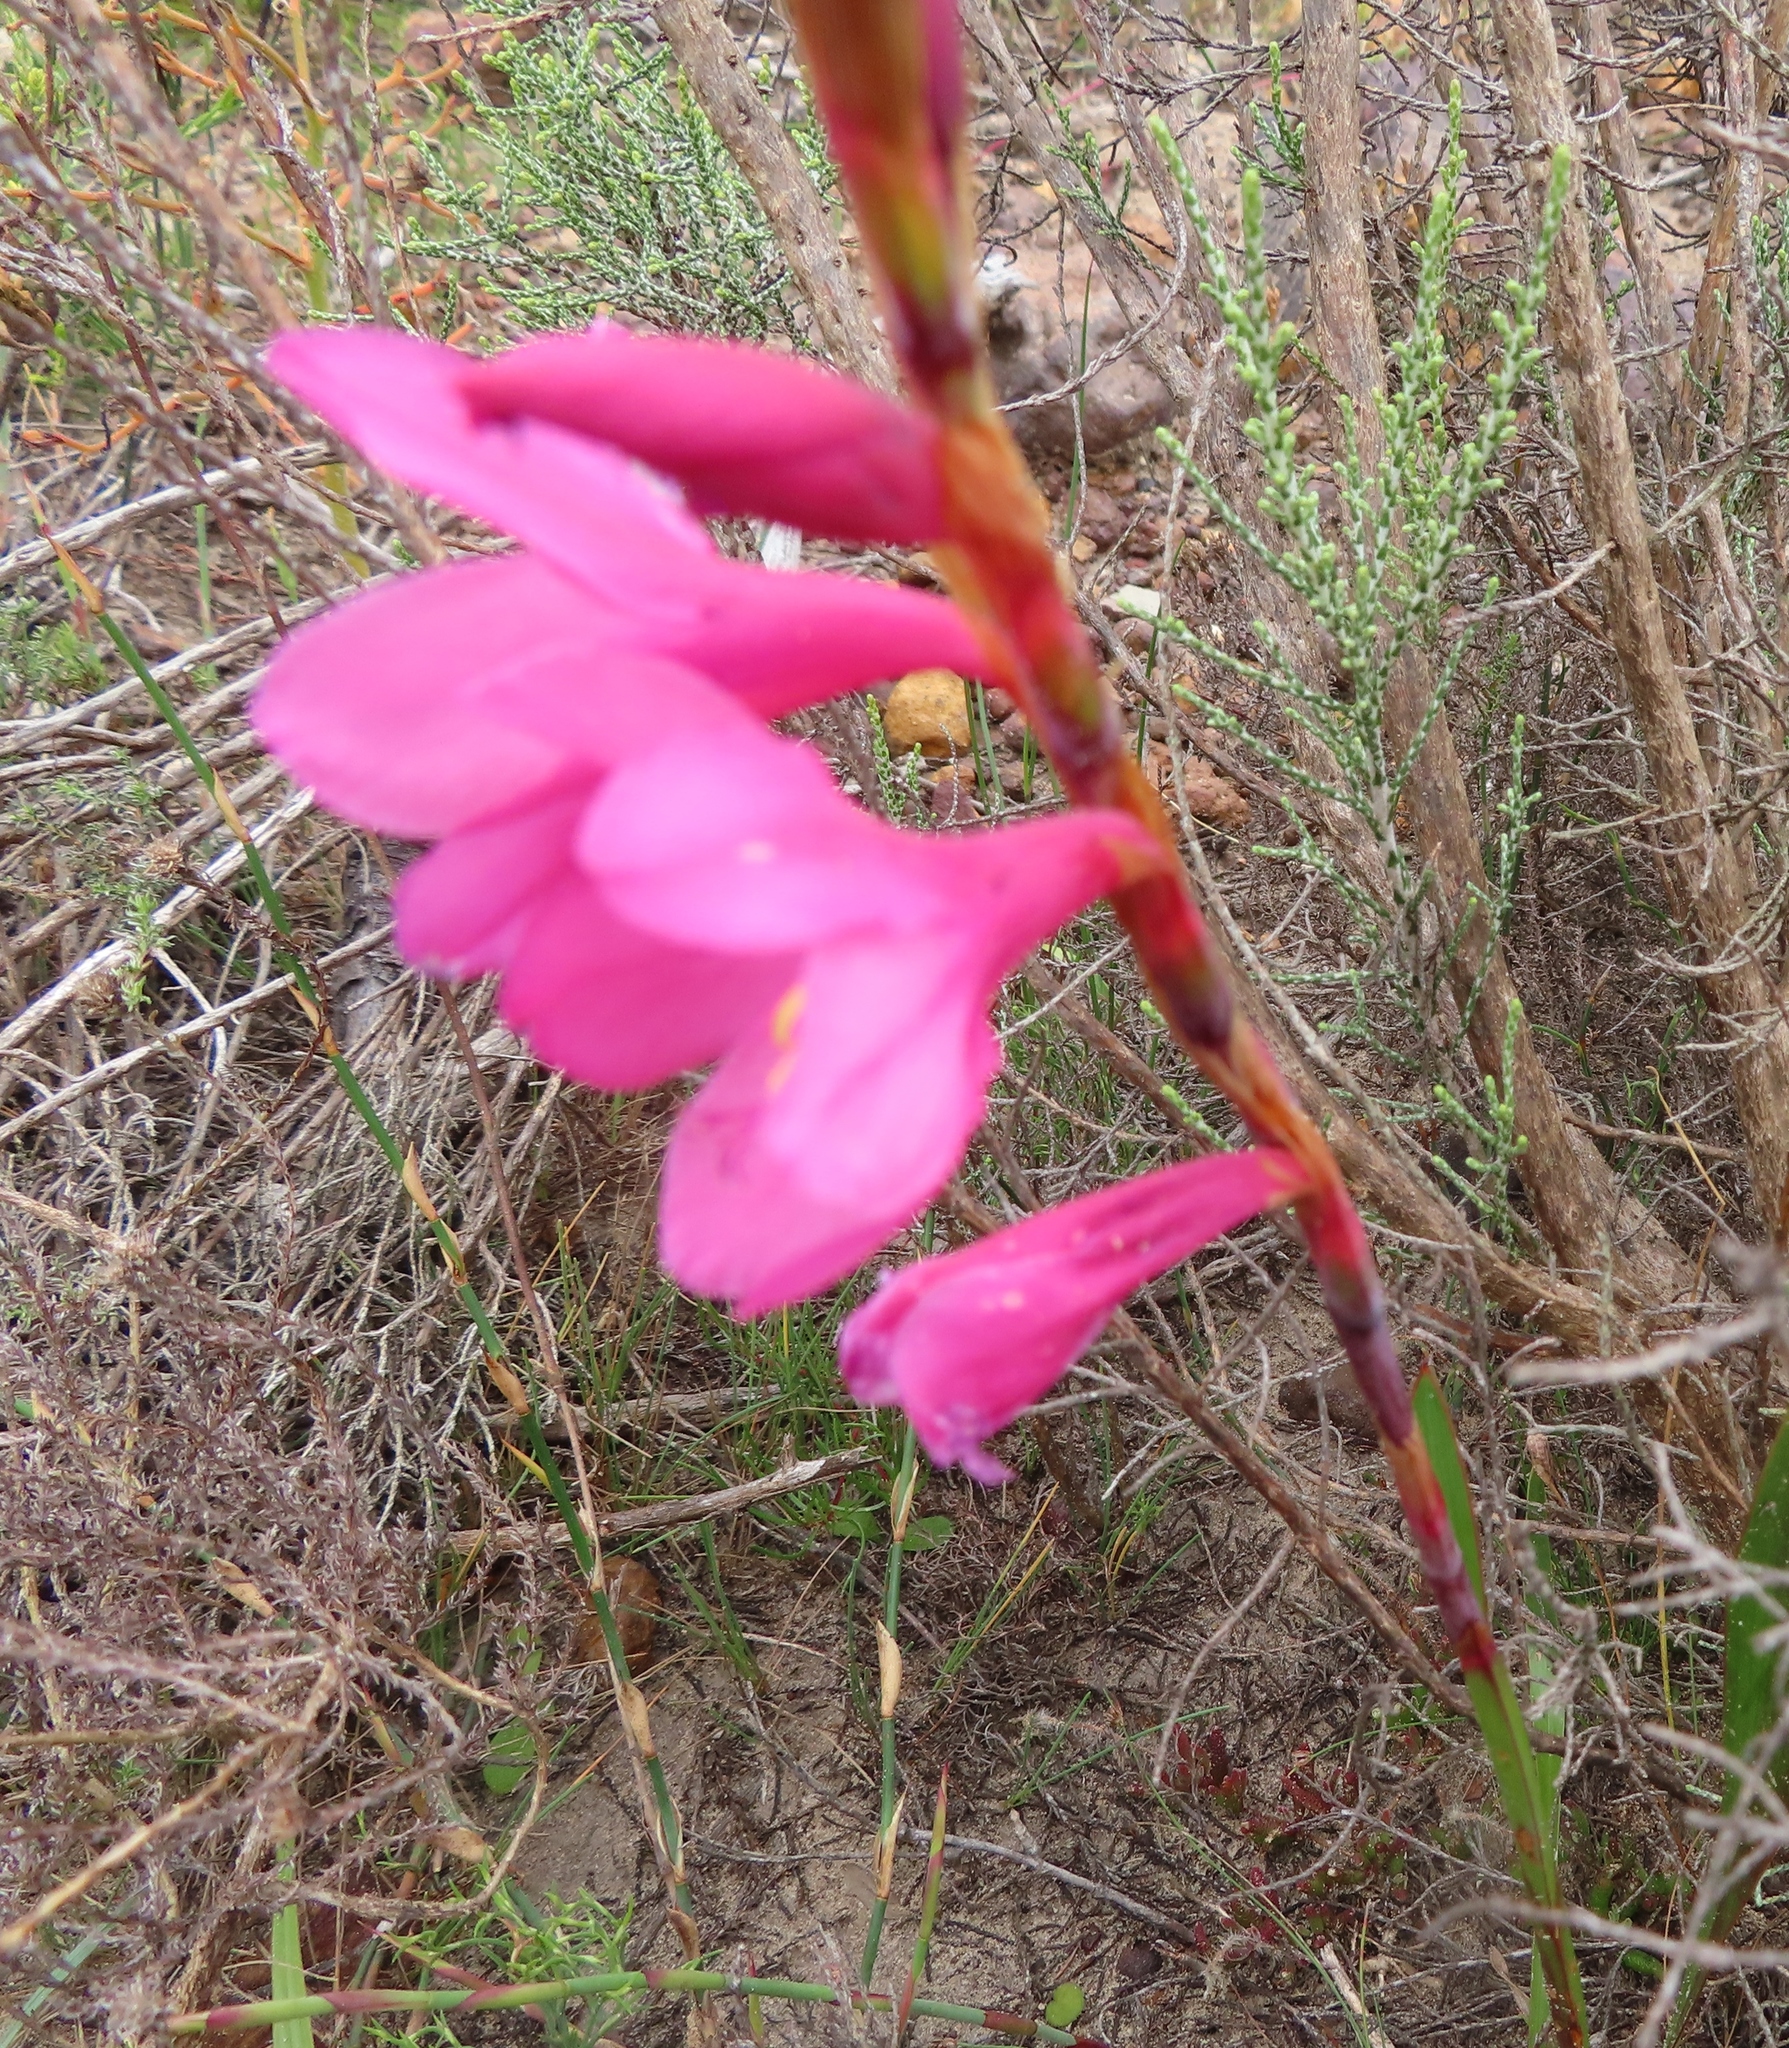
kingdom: Plantae
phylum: Tracheophyta
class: Liliopsida
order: Asparagales
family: Iridaceae
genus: Watsonia
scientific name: Watsonia laccata
